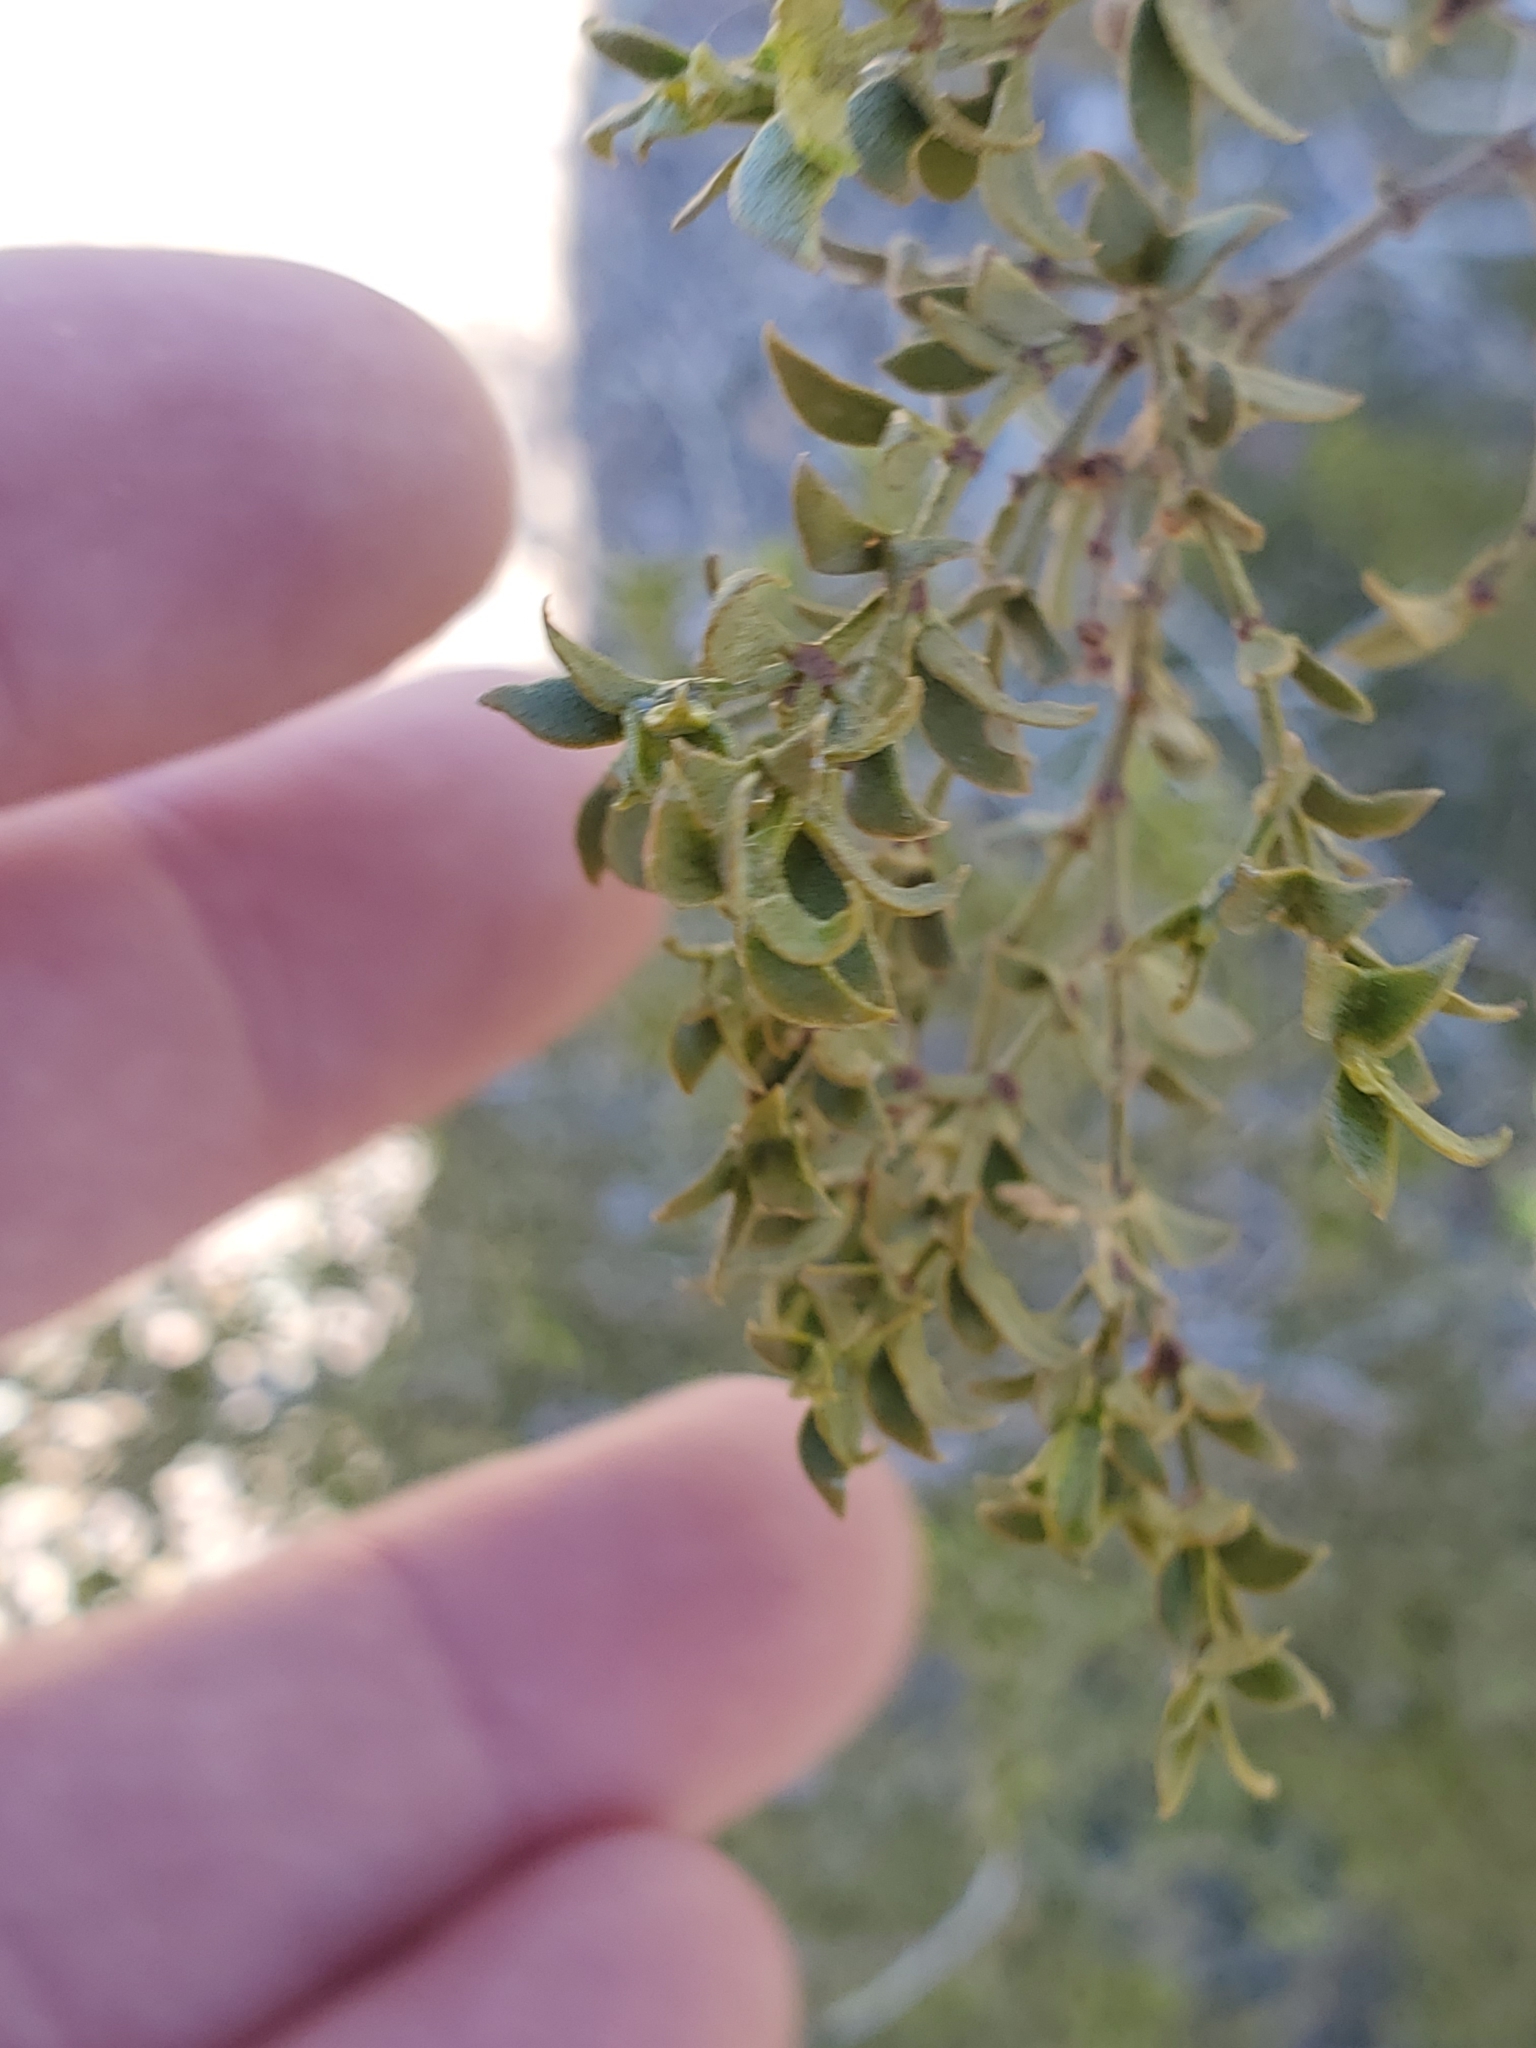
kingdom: Plantae
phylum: Tracheophyta
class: Magnoliopsida
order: Zygophyllales
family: Zygophyllaceae
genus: Larrea
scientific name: Larrea tridentata
